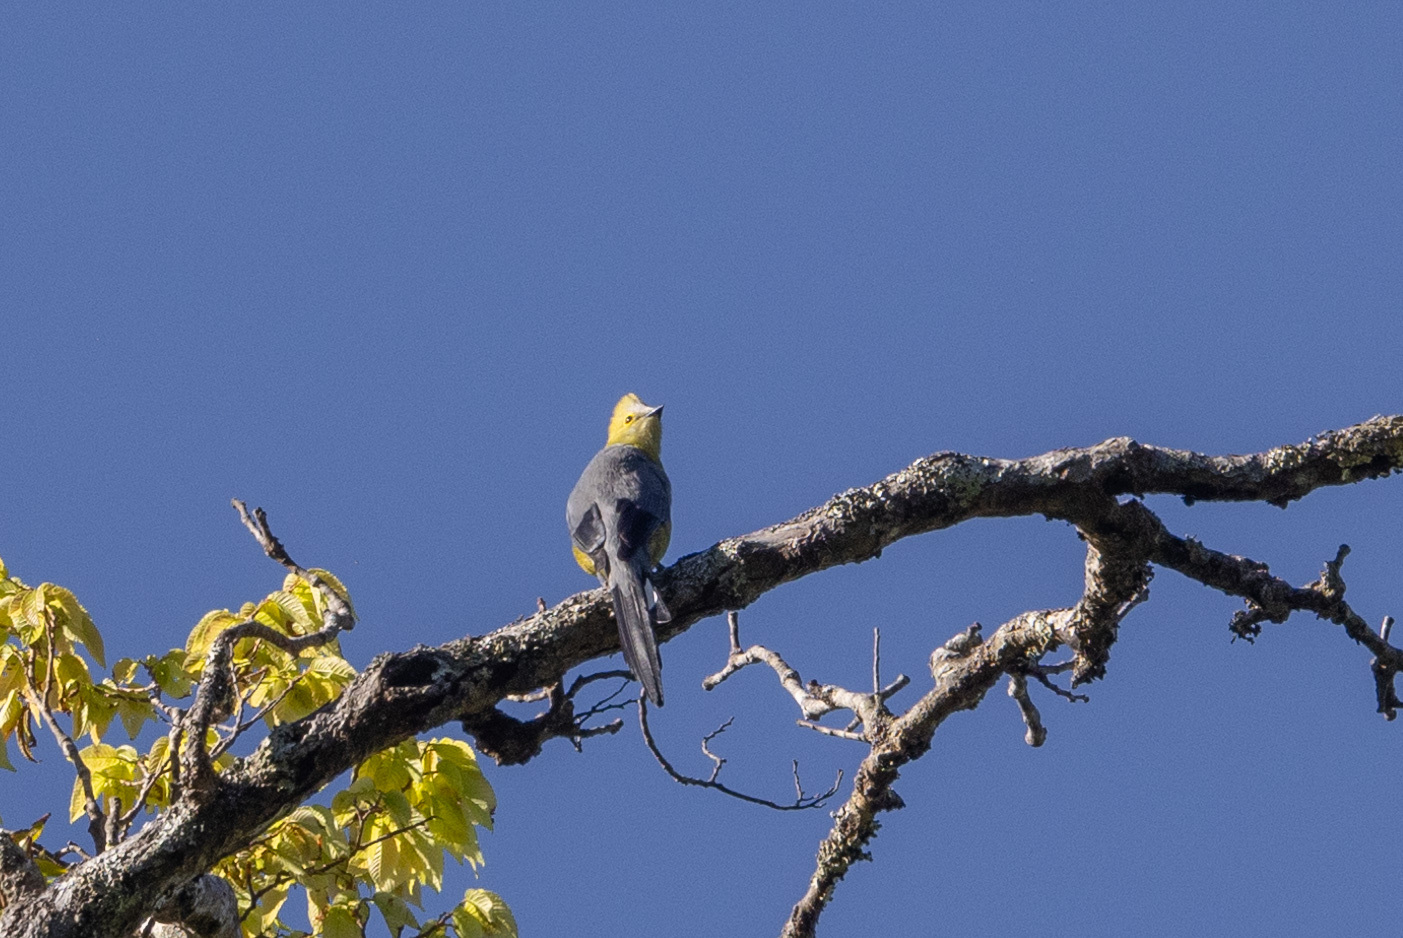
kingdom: Animalia
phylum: Chordata
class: Aves
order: Passeriformes
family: Ptilogonatidae
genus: Ptilogonys
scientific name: Ptilogonys caudatus
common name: Long-tailed silky-flycatcher
